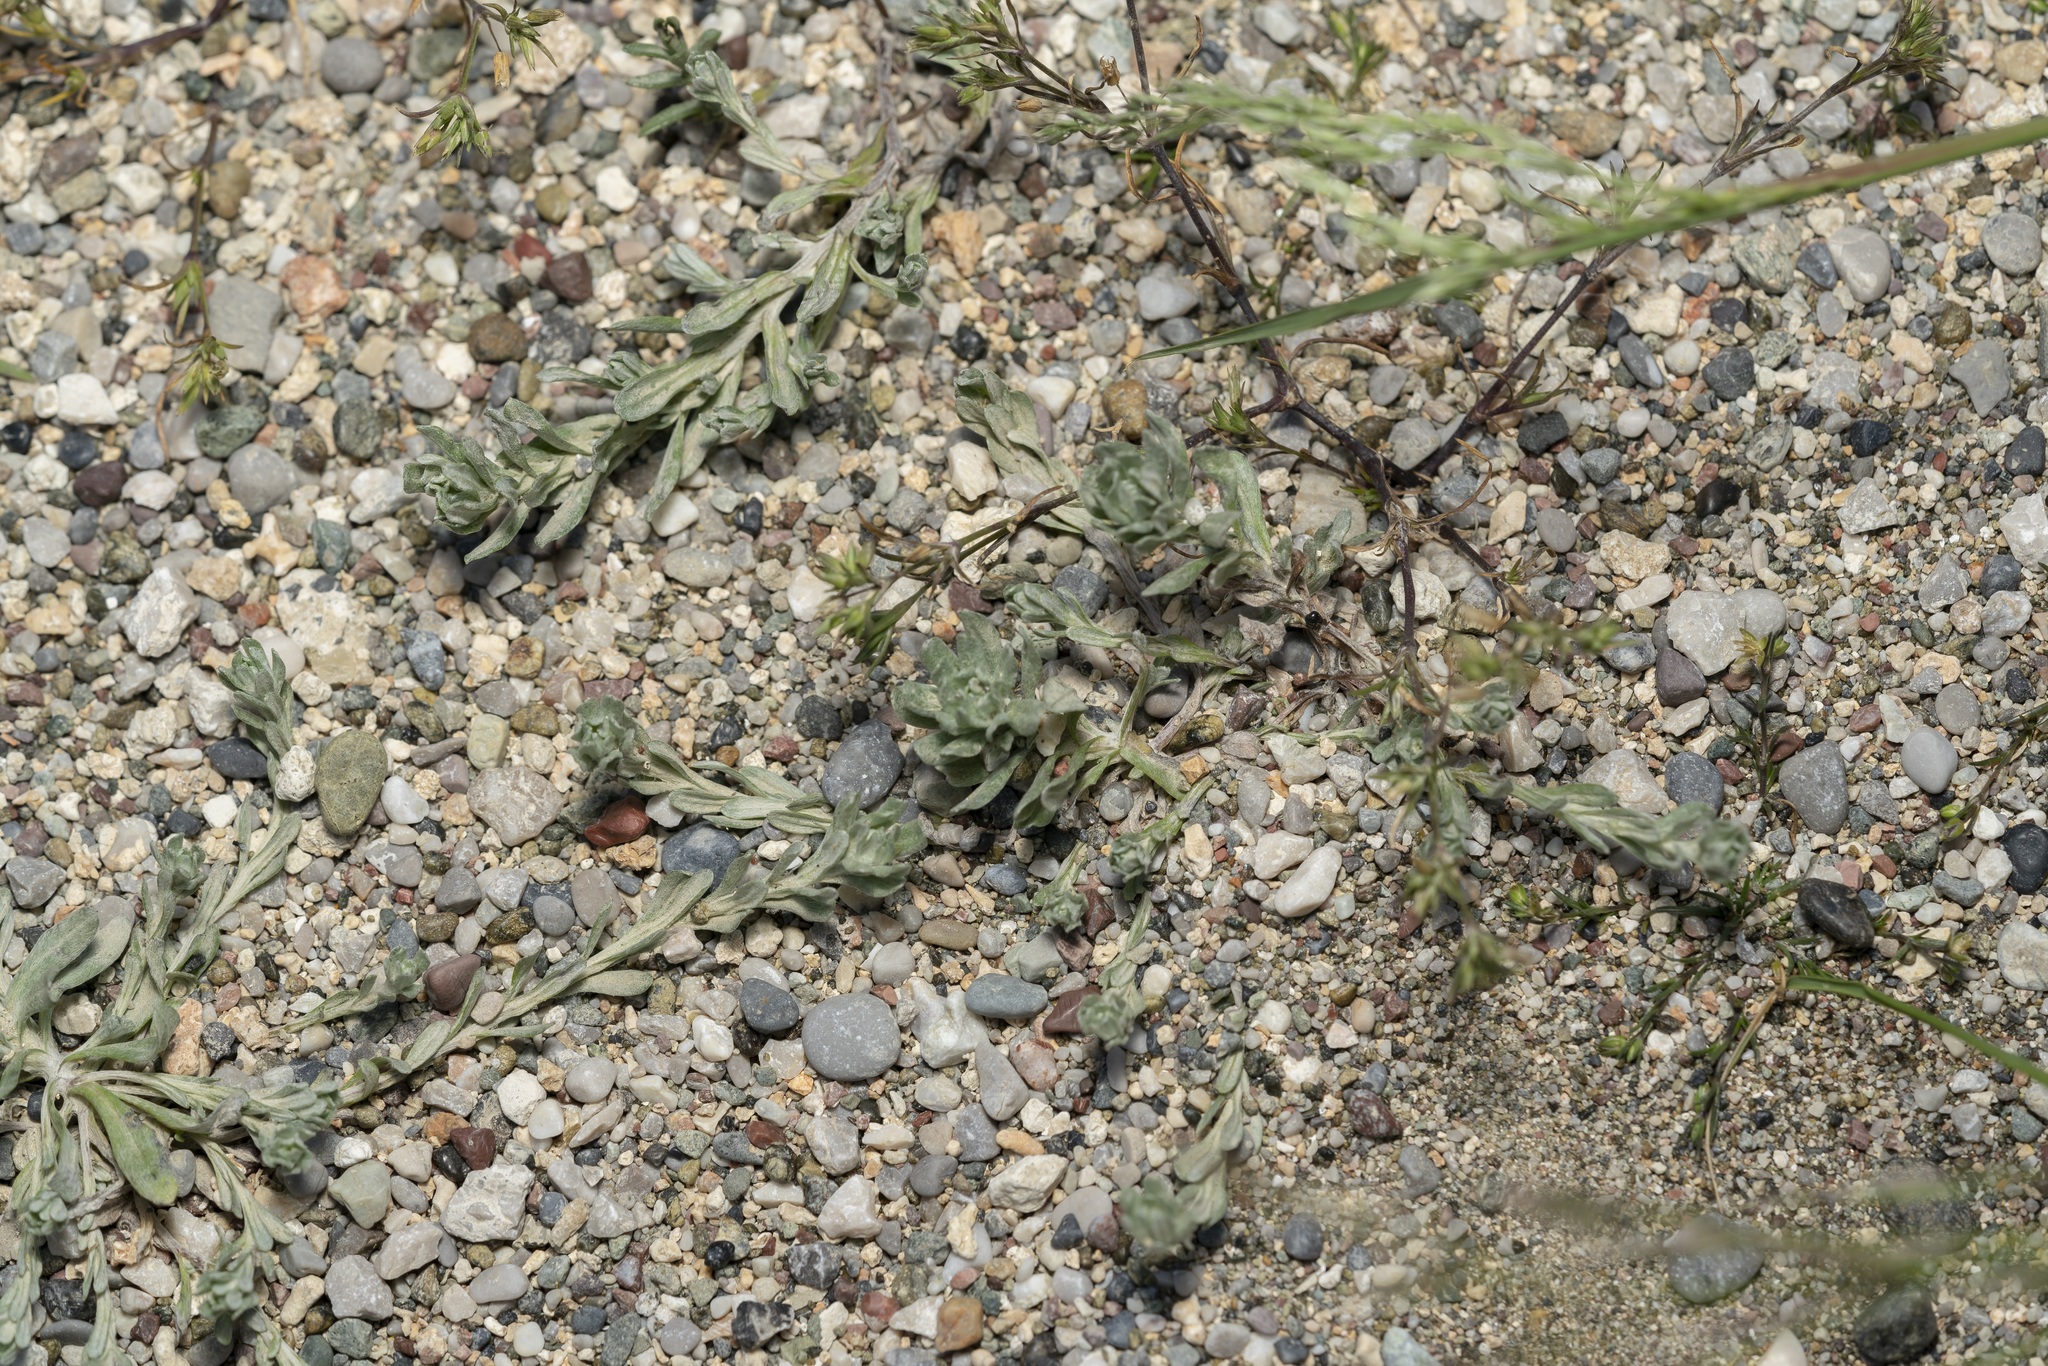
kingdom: Plantae
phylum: Tracheophyta
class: Magnoliopsida
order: Asterales
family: Asteraceae
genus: Filago
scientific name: Filago pyramidata
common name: Broad-leaved cudweed
